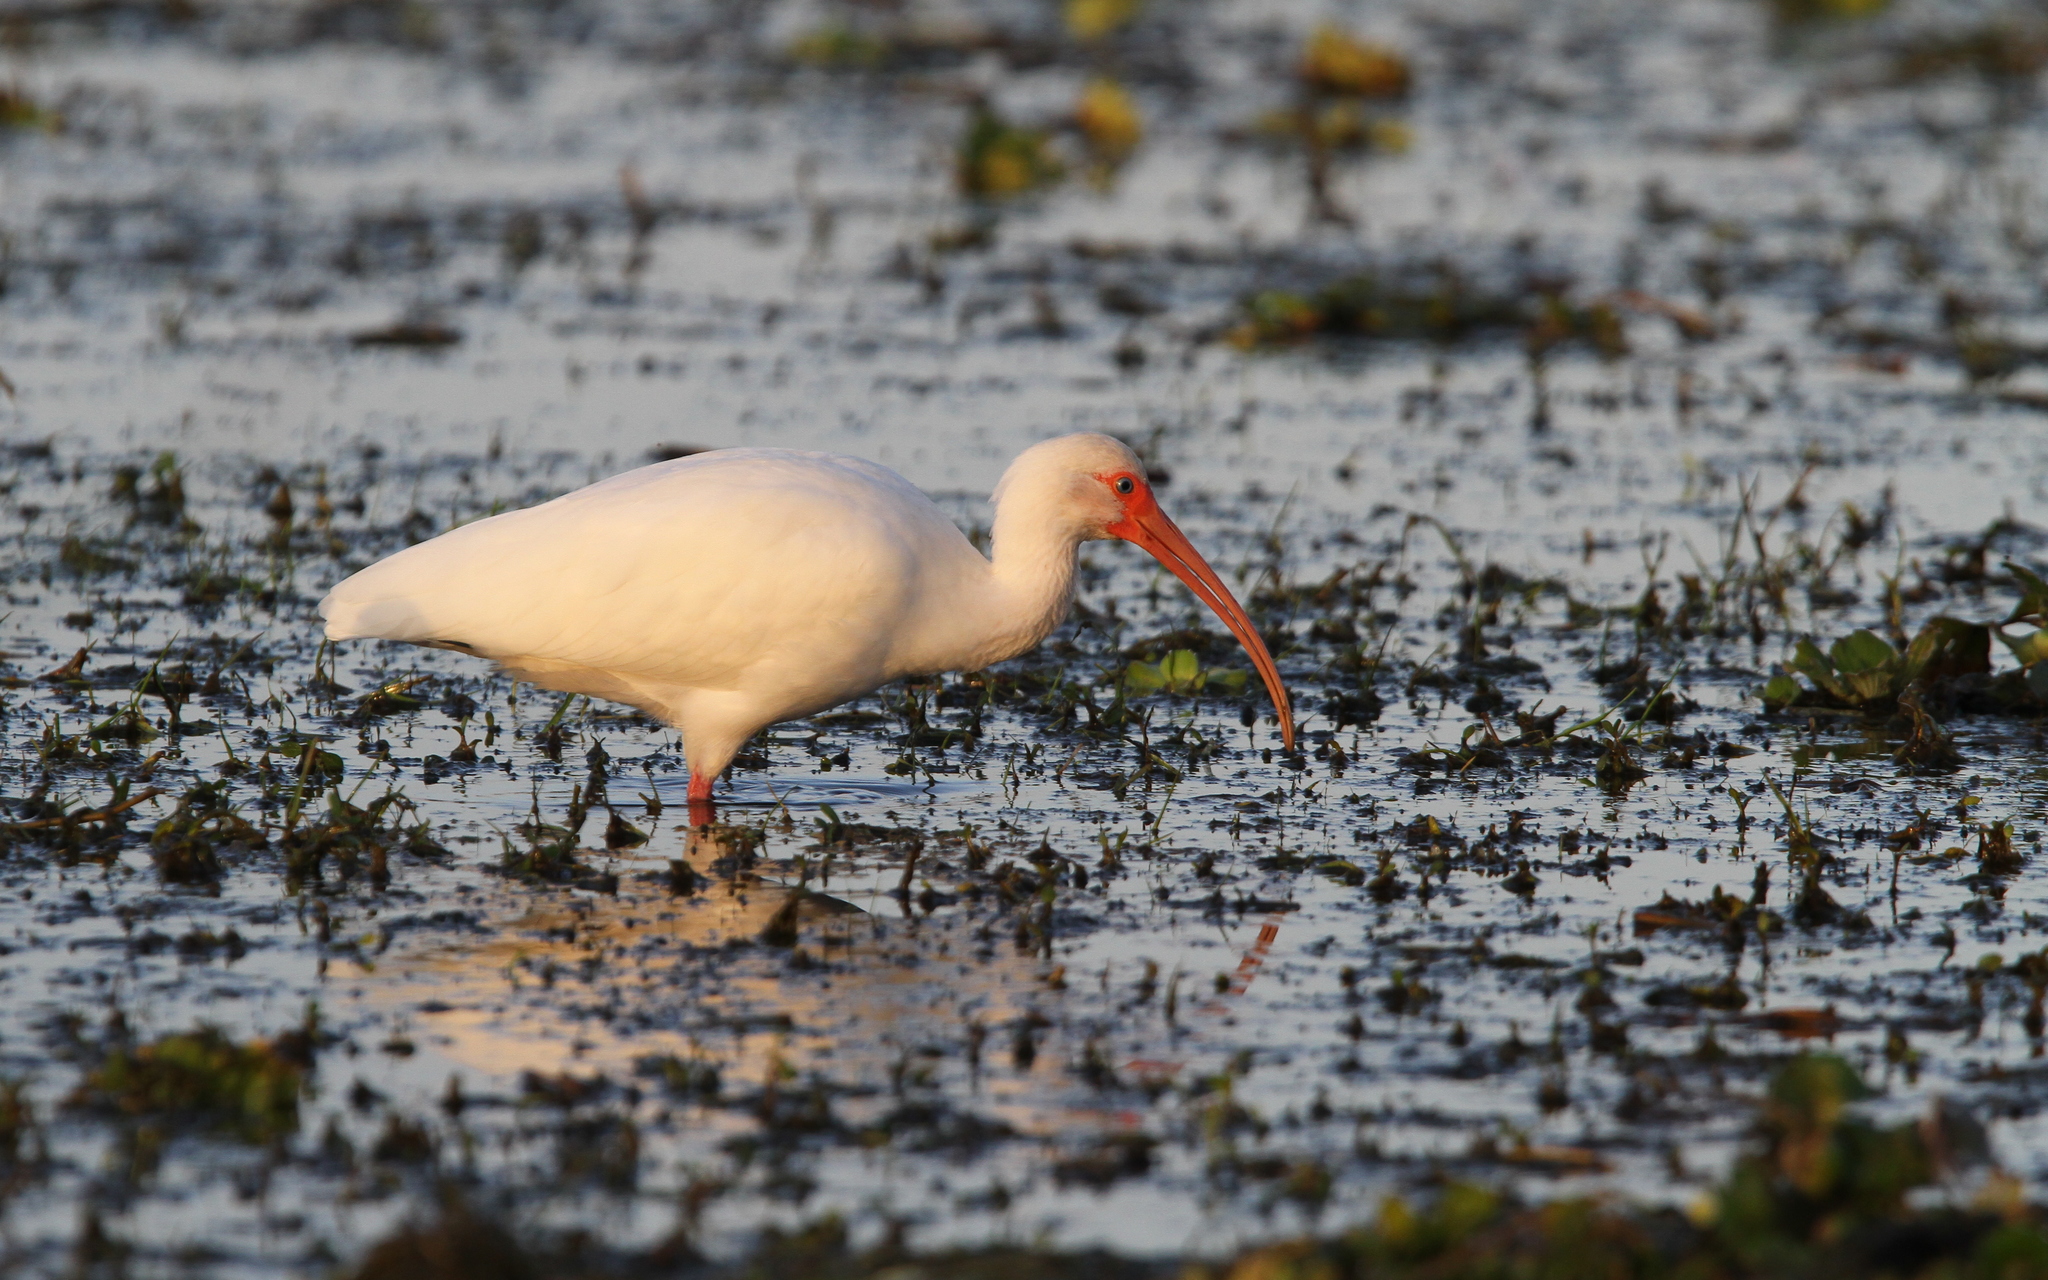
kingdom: Animalia
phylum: Chordata
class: Aves
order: Pelecaniformes
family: Threskiornithidae
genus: Eudocimus
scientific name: Eudocimus albus
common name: White ibis
